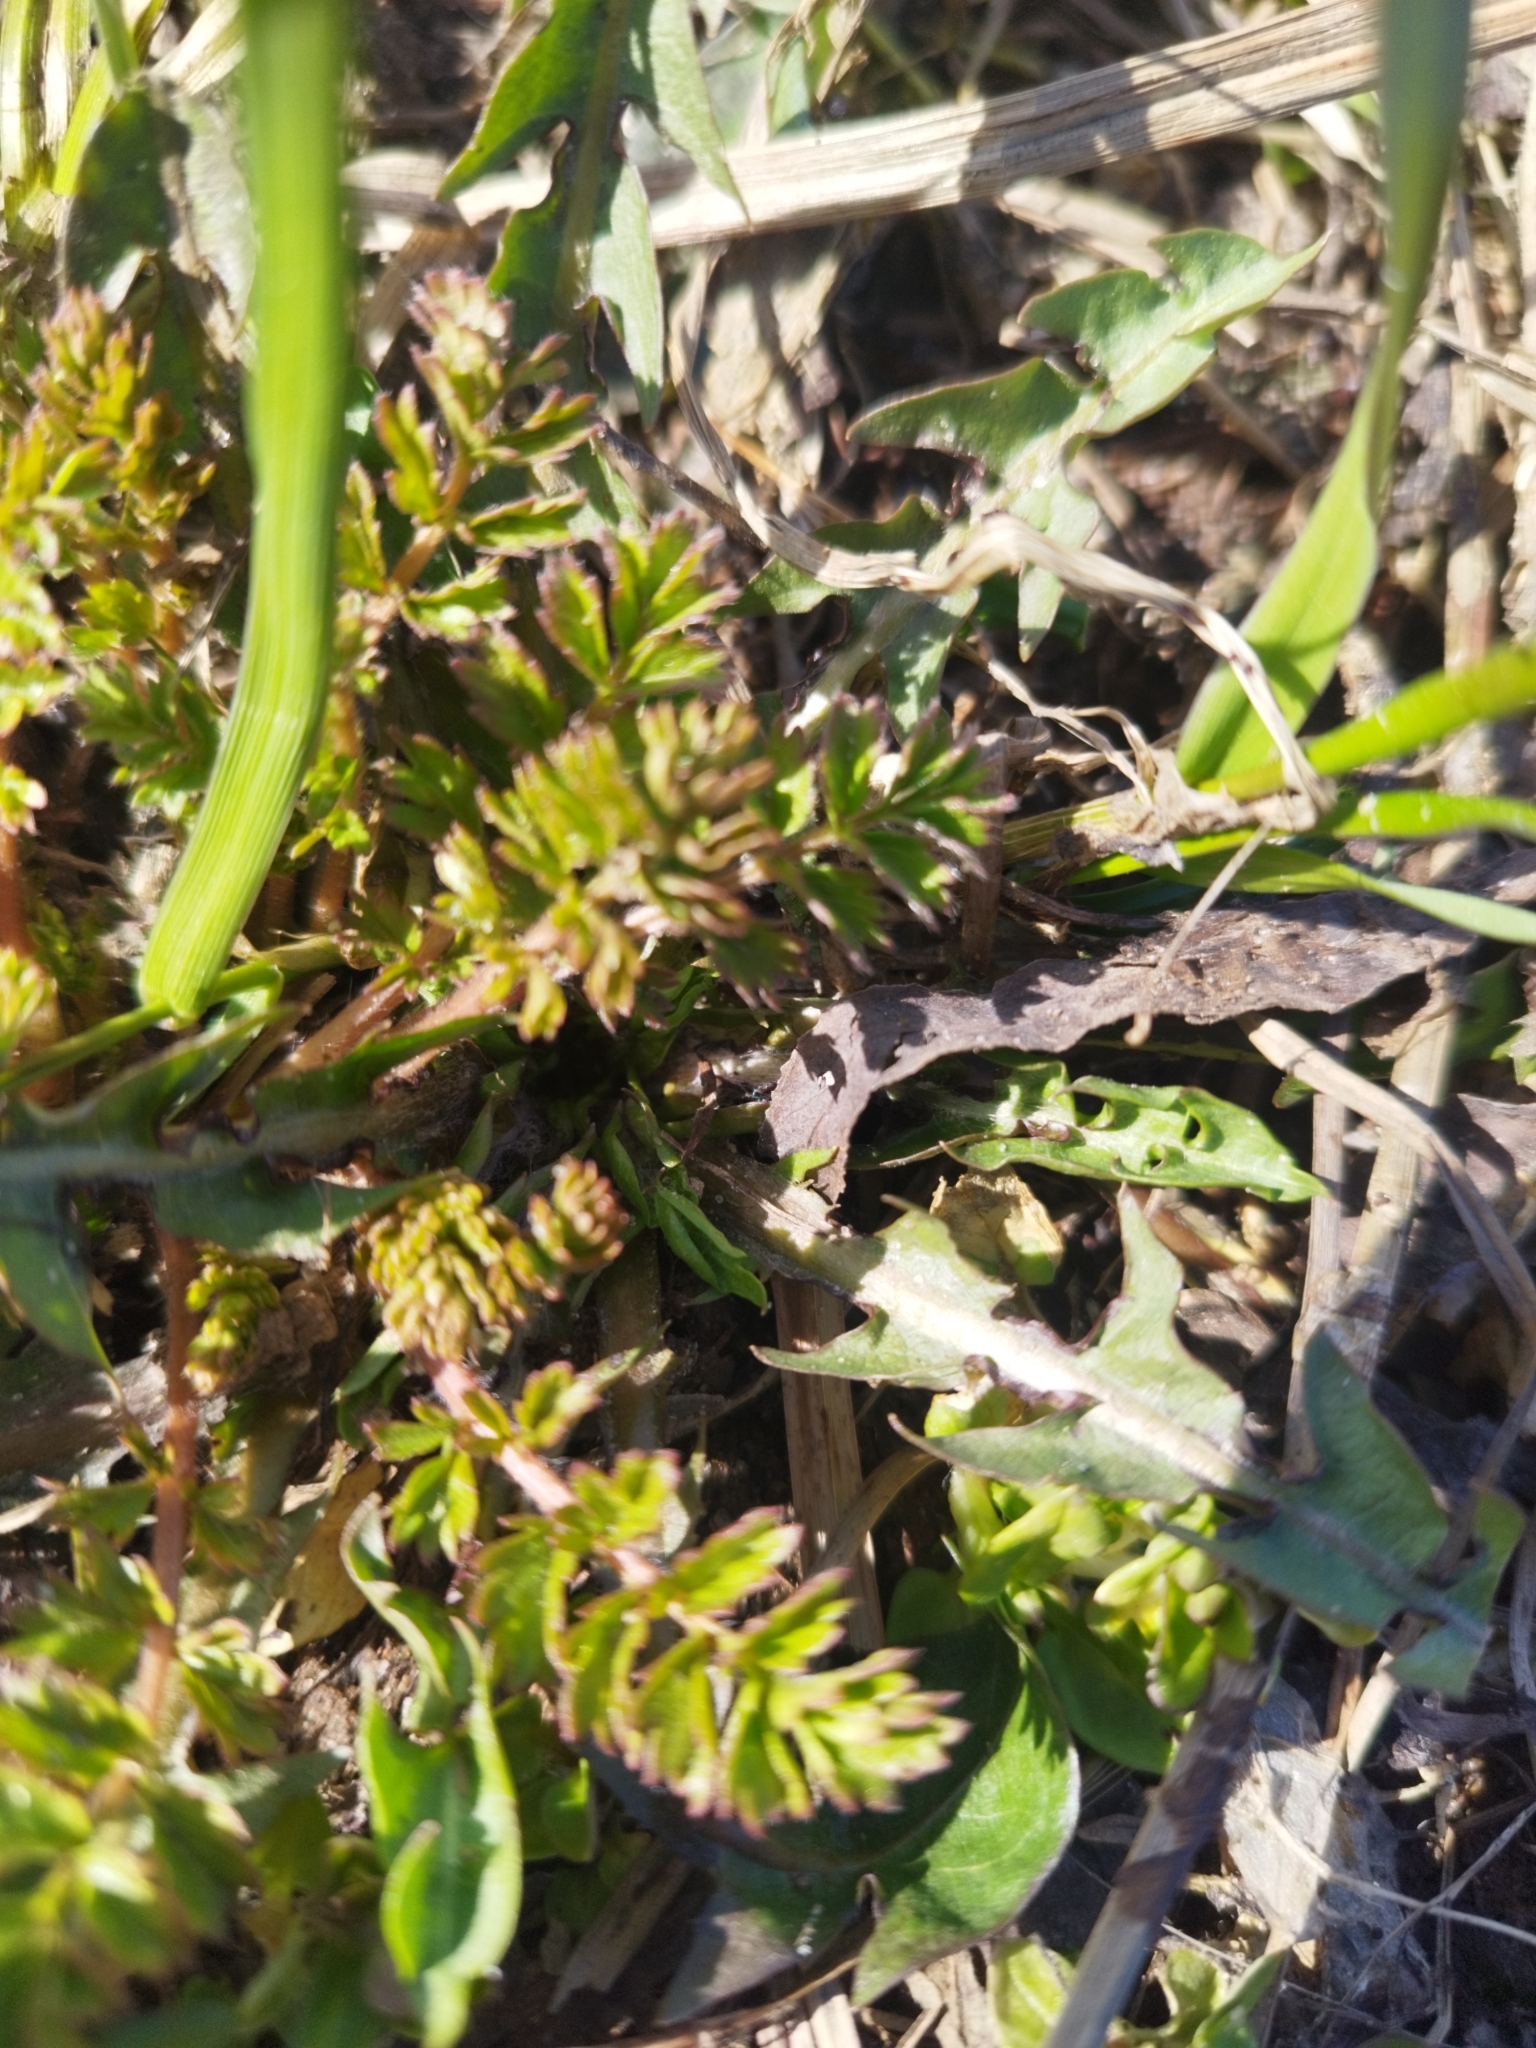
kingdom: Plantae
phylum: Tracheophyta
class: Magnoliopsida
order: Rosales
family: Rosaceae
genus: Potentilla
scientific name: Potentilla supina
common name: Prostrate cinquefoil
